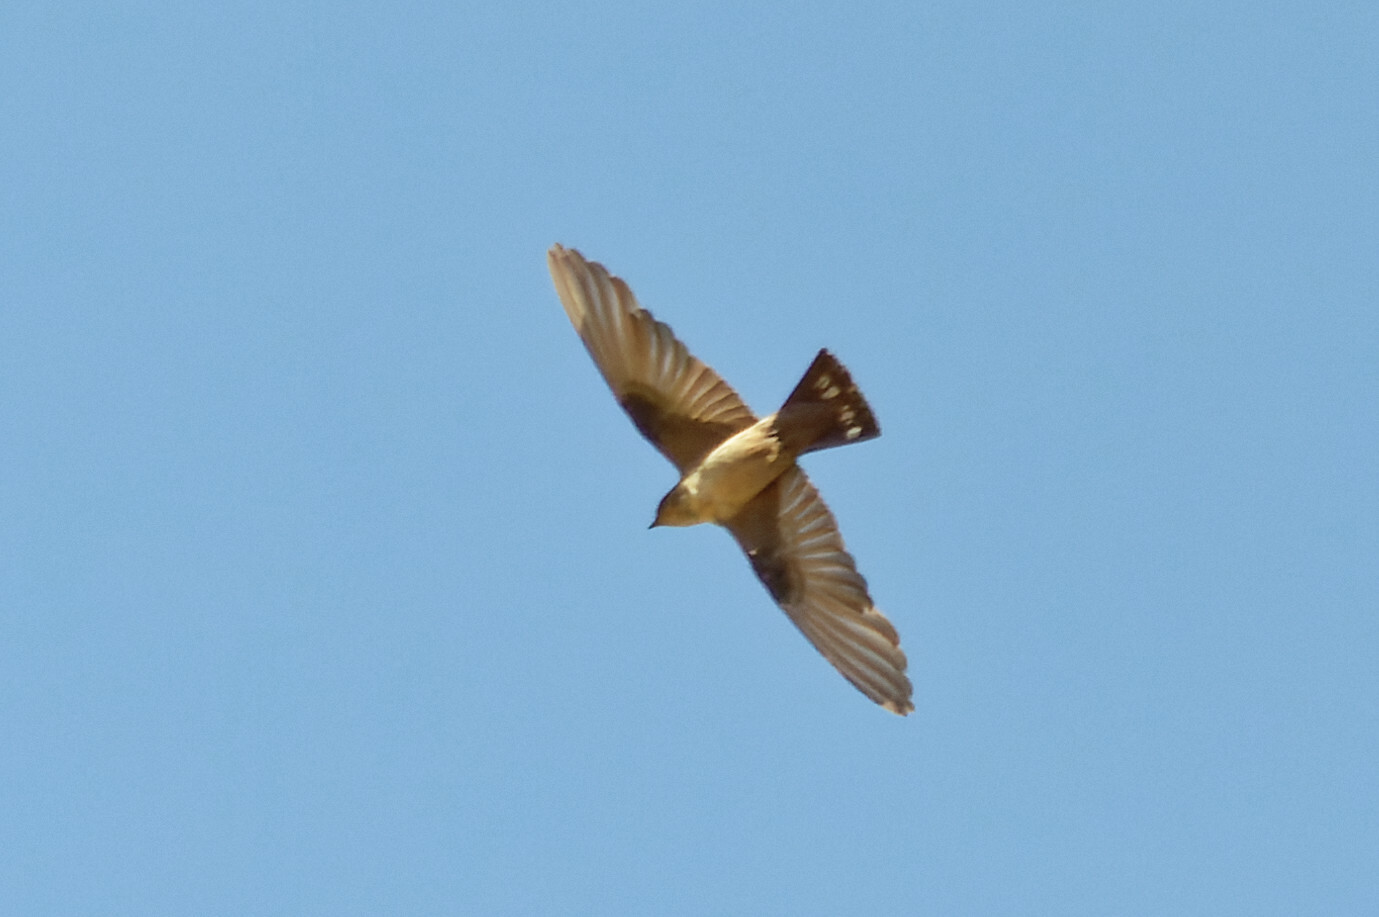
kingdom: Animalia
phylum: Chordata
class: Aves
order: Passeriformes
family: Hirundinidae
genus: Ptyonoprogne
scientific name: Ptyonoprogne rupestris
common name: Eurasian crag martin
